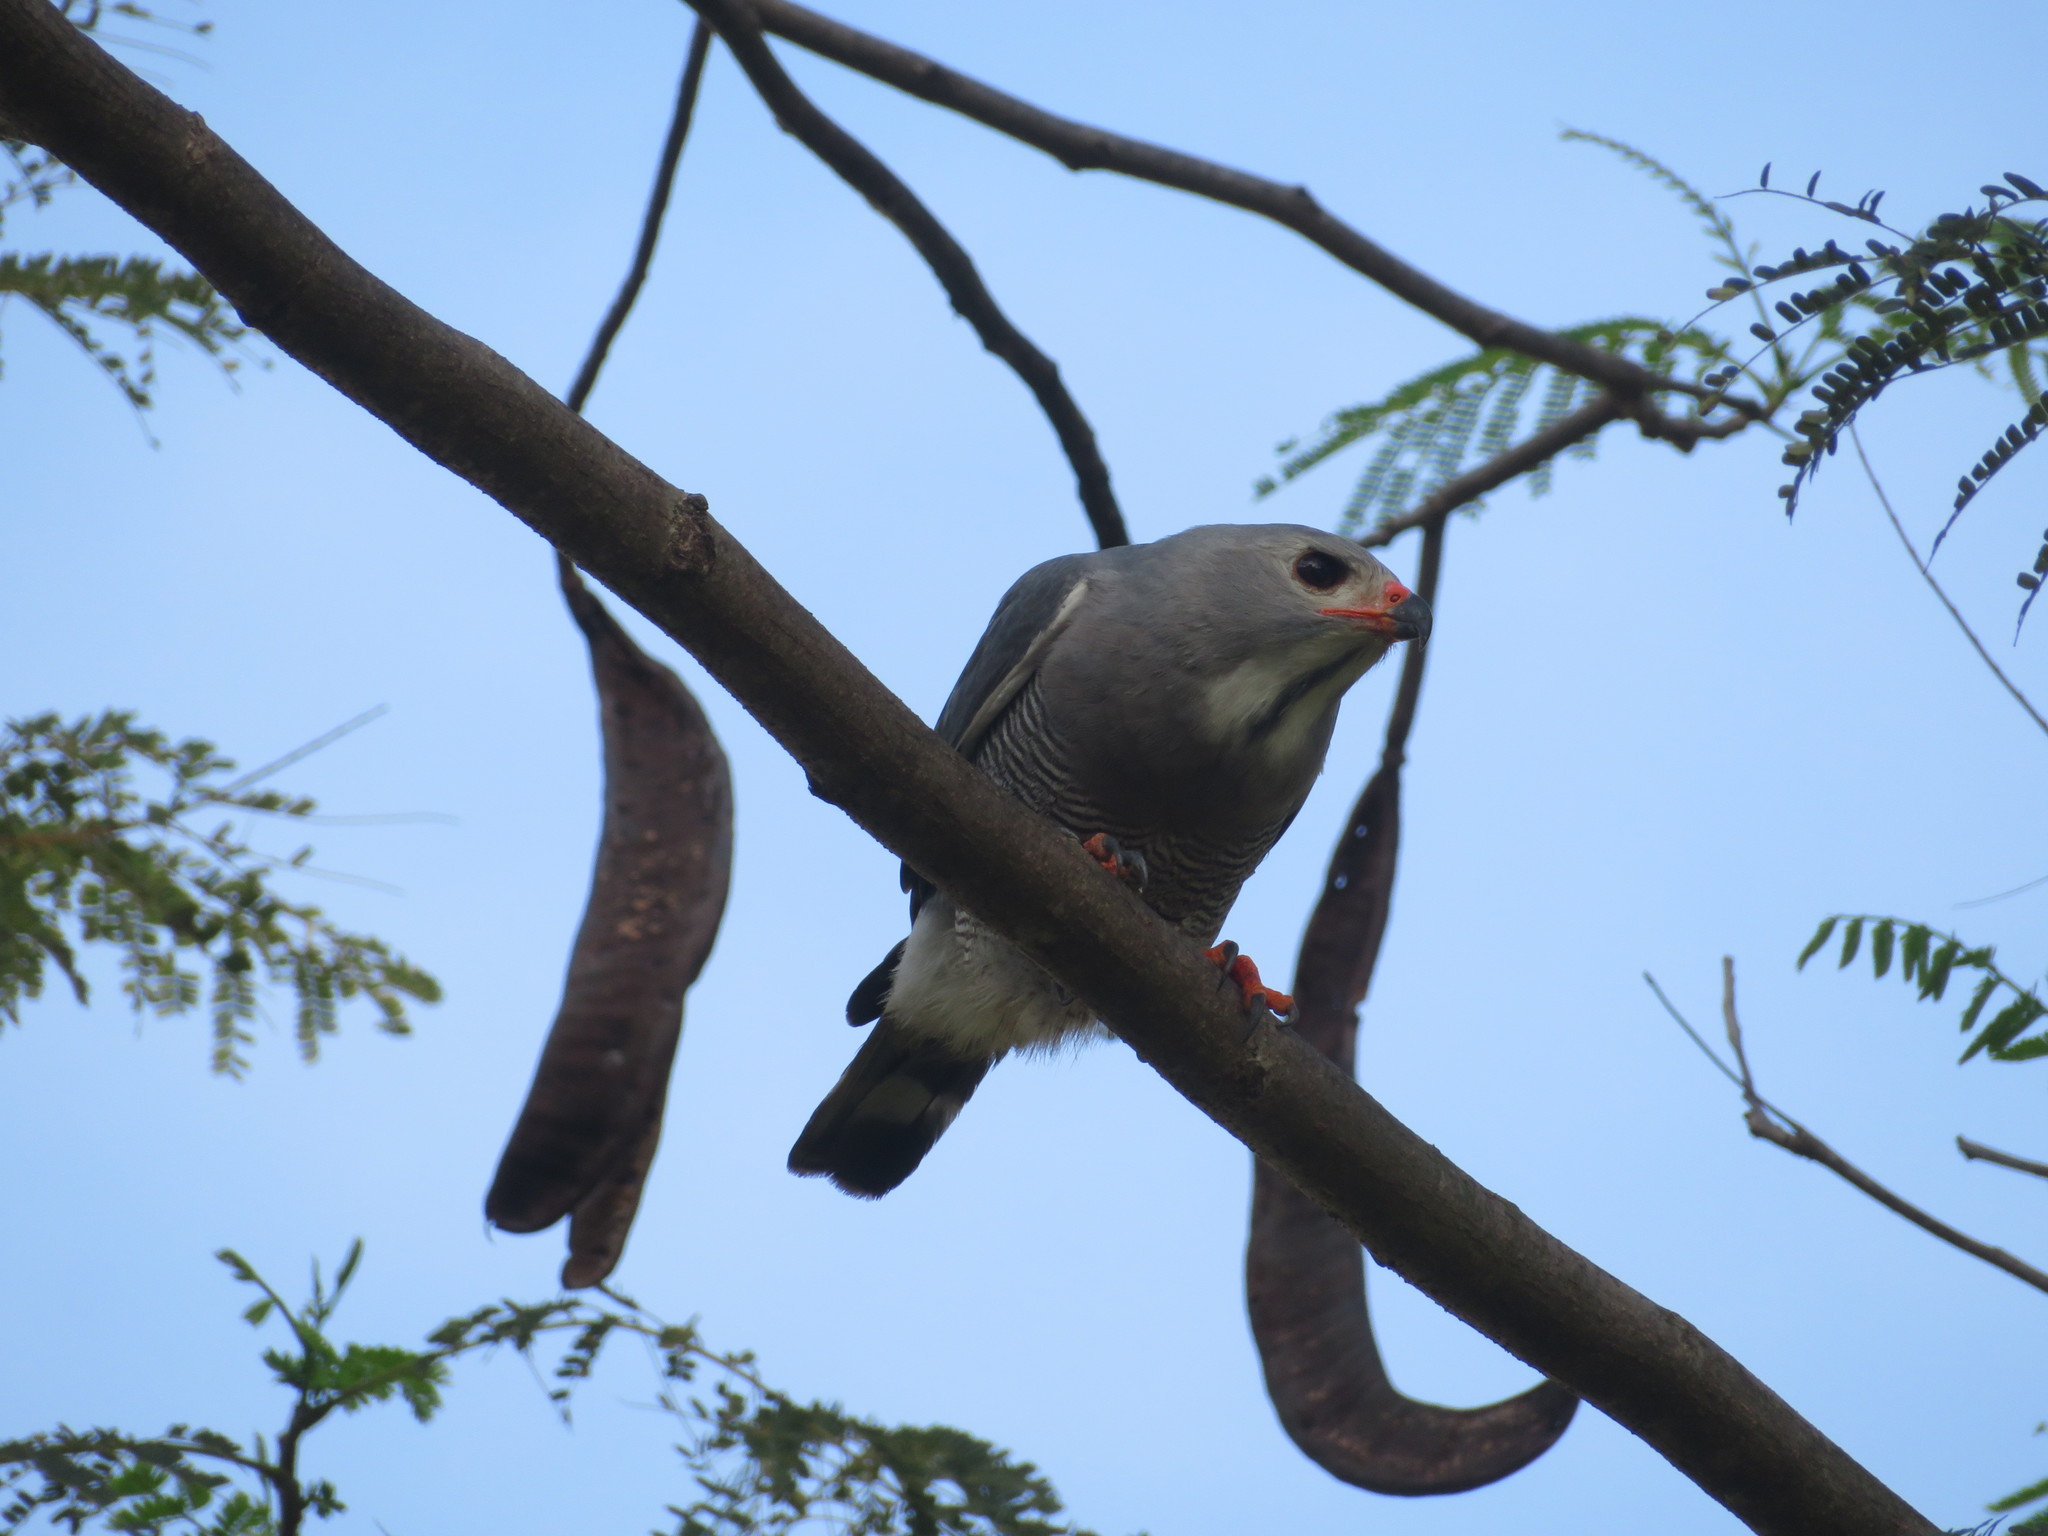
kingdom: Animalia
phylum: Chordata
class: Aves
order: Accipitriformes
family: Accipitridae
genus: Kaupifalco
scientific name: Kaupifalco monogrammicus
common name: Lizard buzzard
